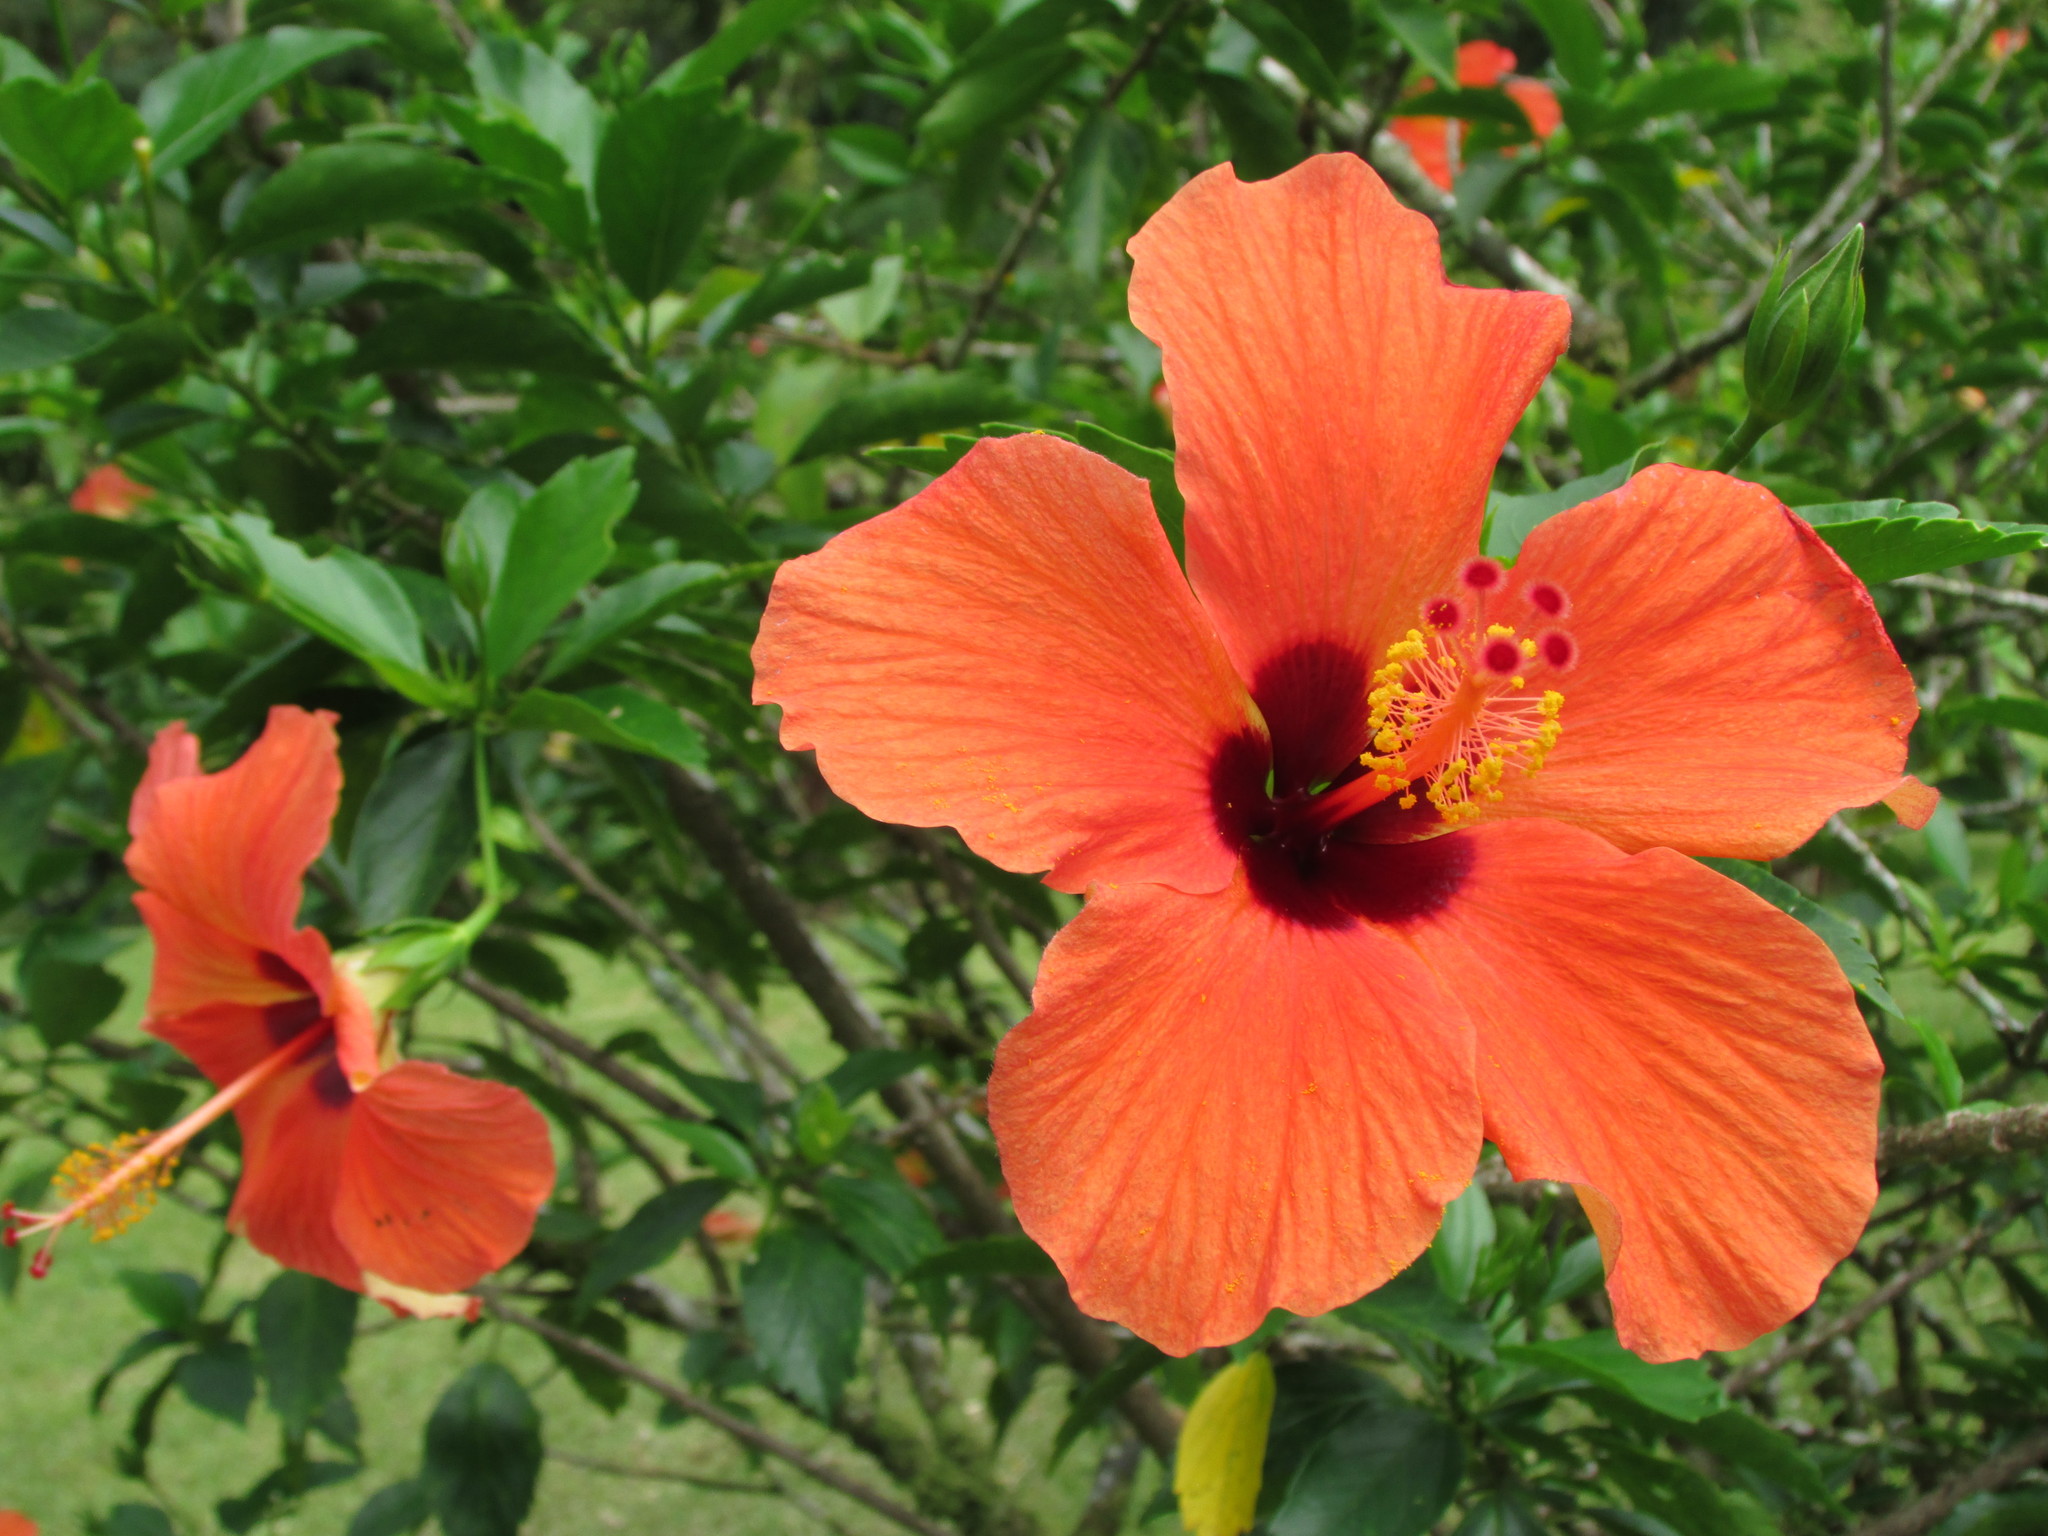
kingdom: Plantae
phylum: Tracheophyta
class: Magnoliopsida
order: Malvales
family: Malvaceae
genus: Hibiscus
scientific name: Hibiscus rosa-sinensis
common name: Hibiscus
